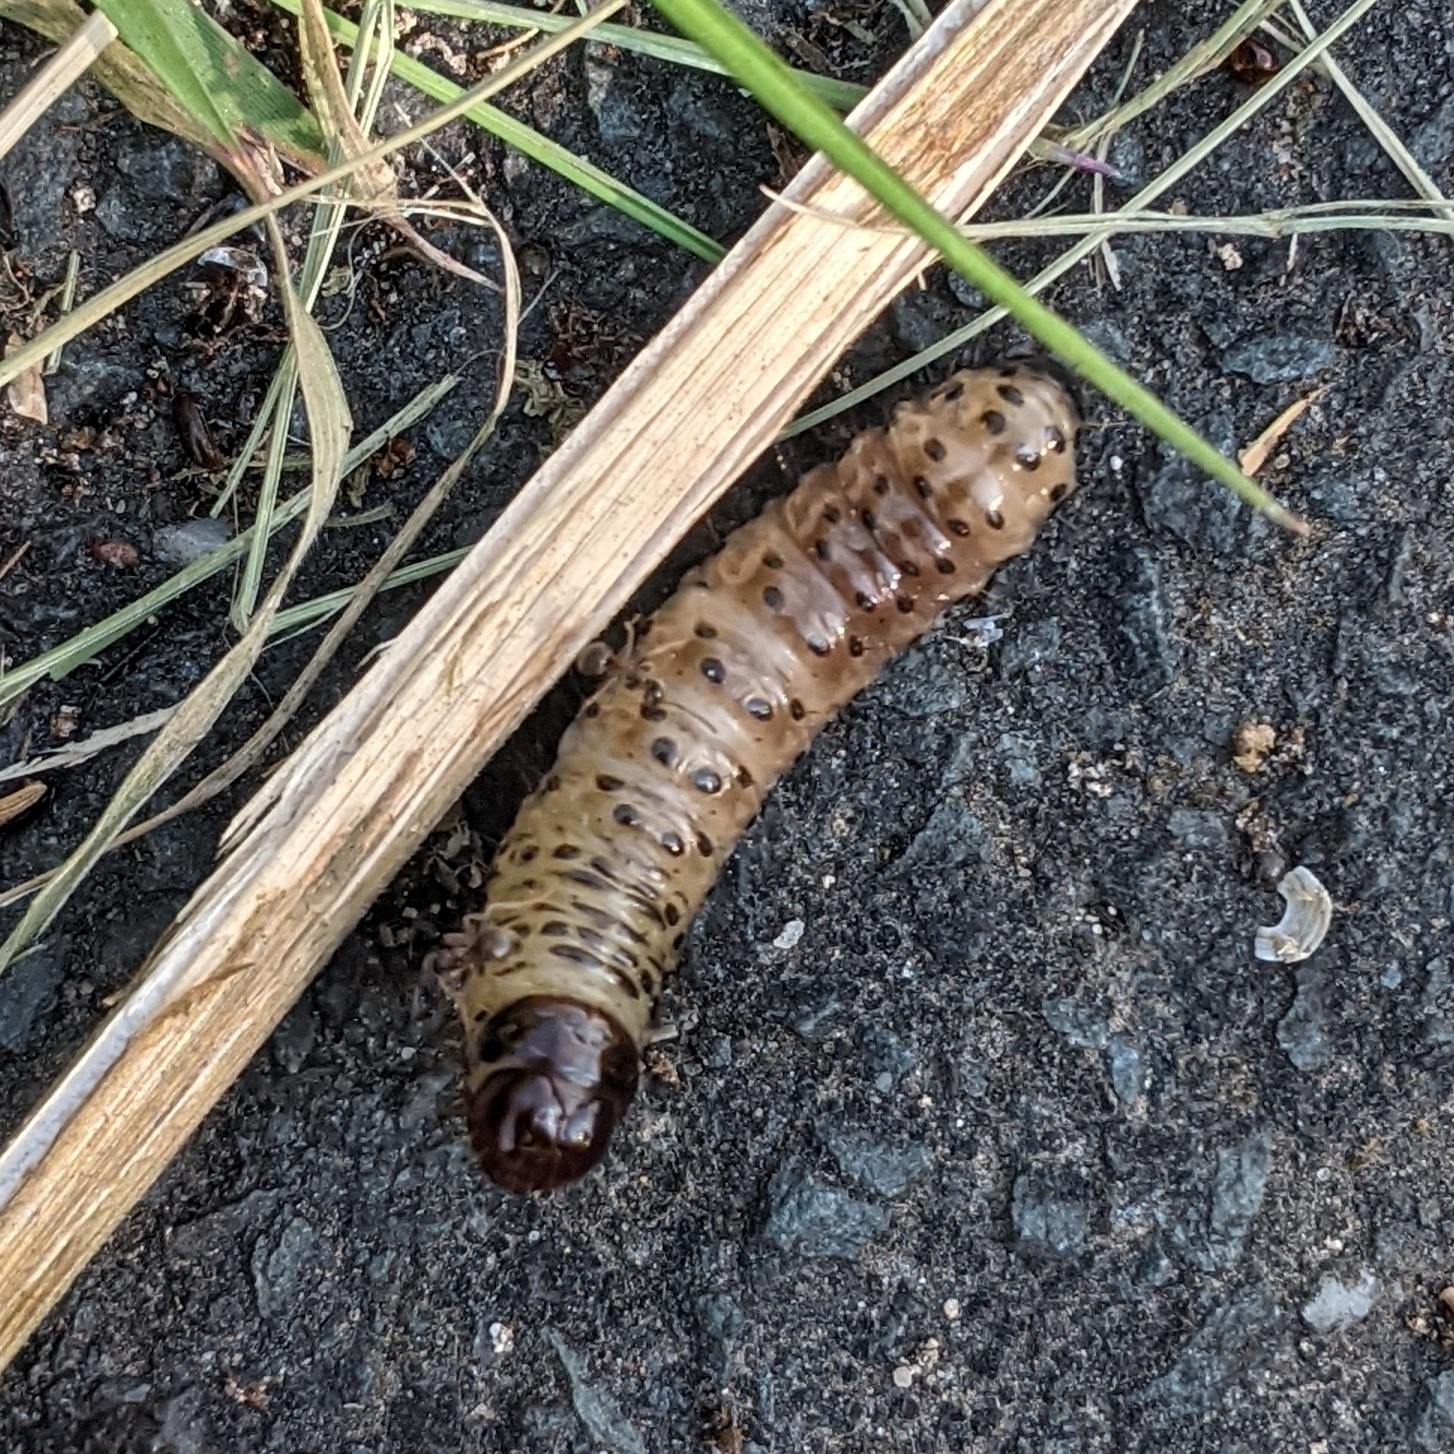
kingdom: Animalia
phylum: Arthropoda
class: Insecta
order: Lepidoptera
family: Cossidae
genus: Zeuzera
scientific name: Zeuzera pyrina
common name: Leopard moth
